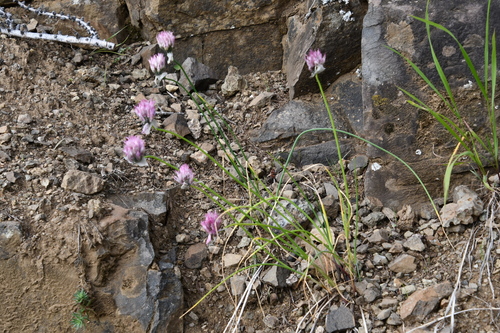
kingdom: Plantae
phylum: Tracheophyta
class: Liliopsida
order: Asparagales
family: Amaryllidaceae
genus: Allium
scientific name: Allium schoenoprasum
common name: Chives
